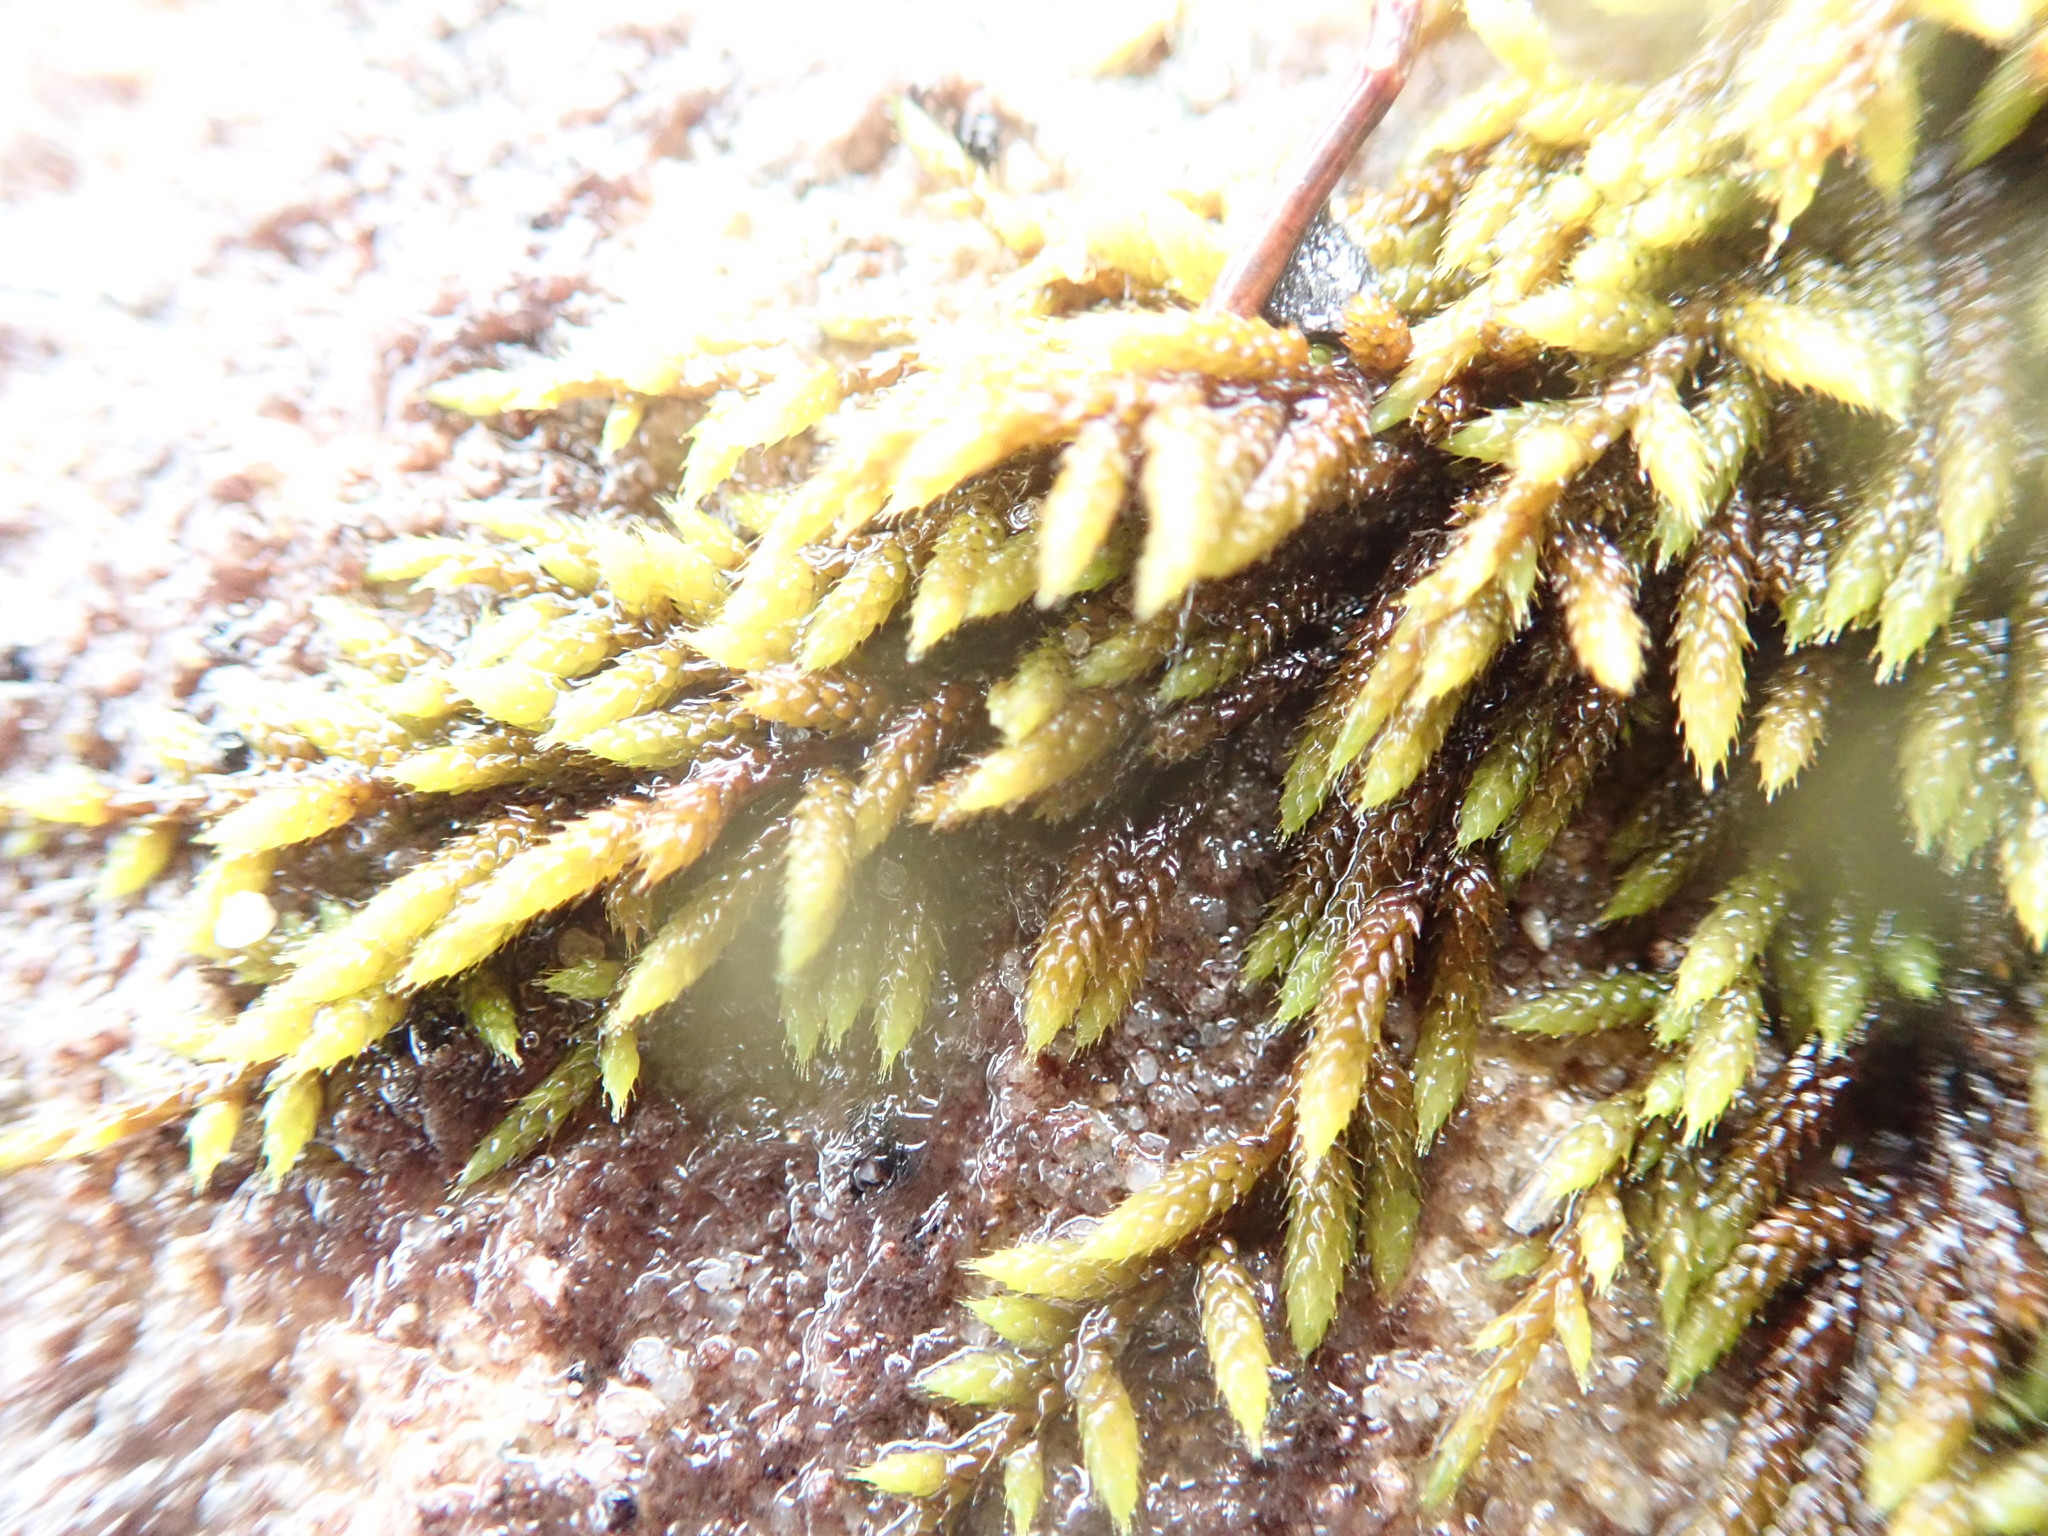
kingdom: Plantae
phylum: Bryophyta
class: Bryopsida
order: Hedwigiales
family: Hedwigiaceae
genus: Rhacocarpus
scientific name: Rhacocarpus purpurascens
